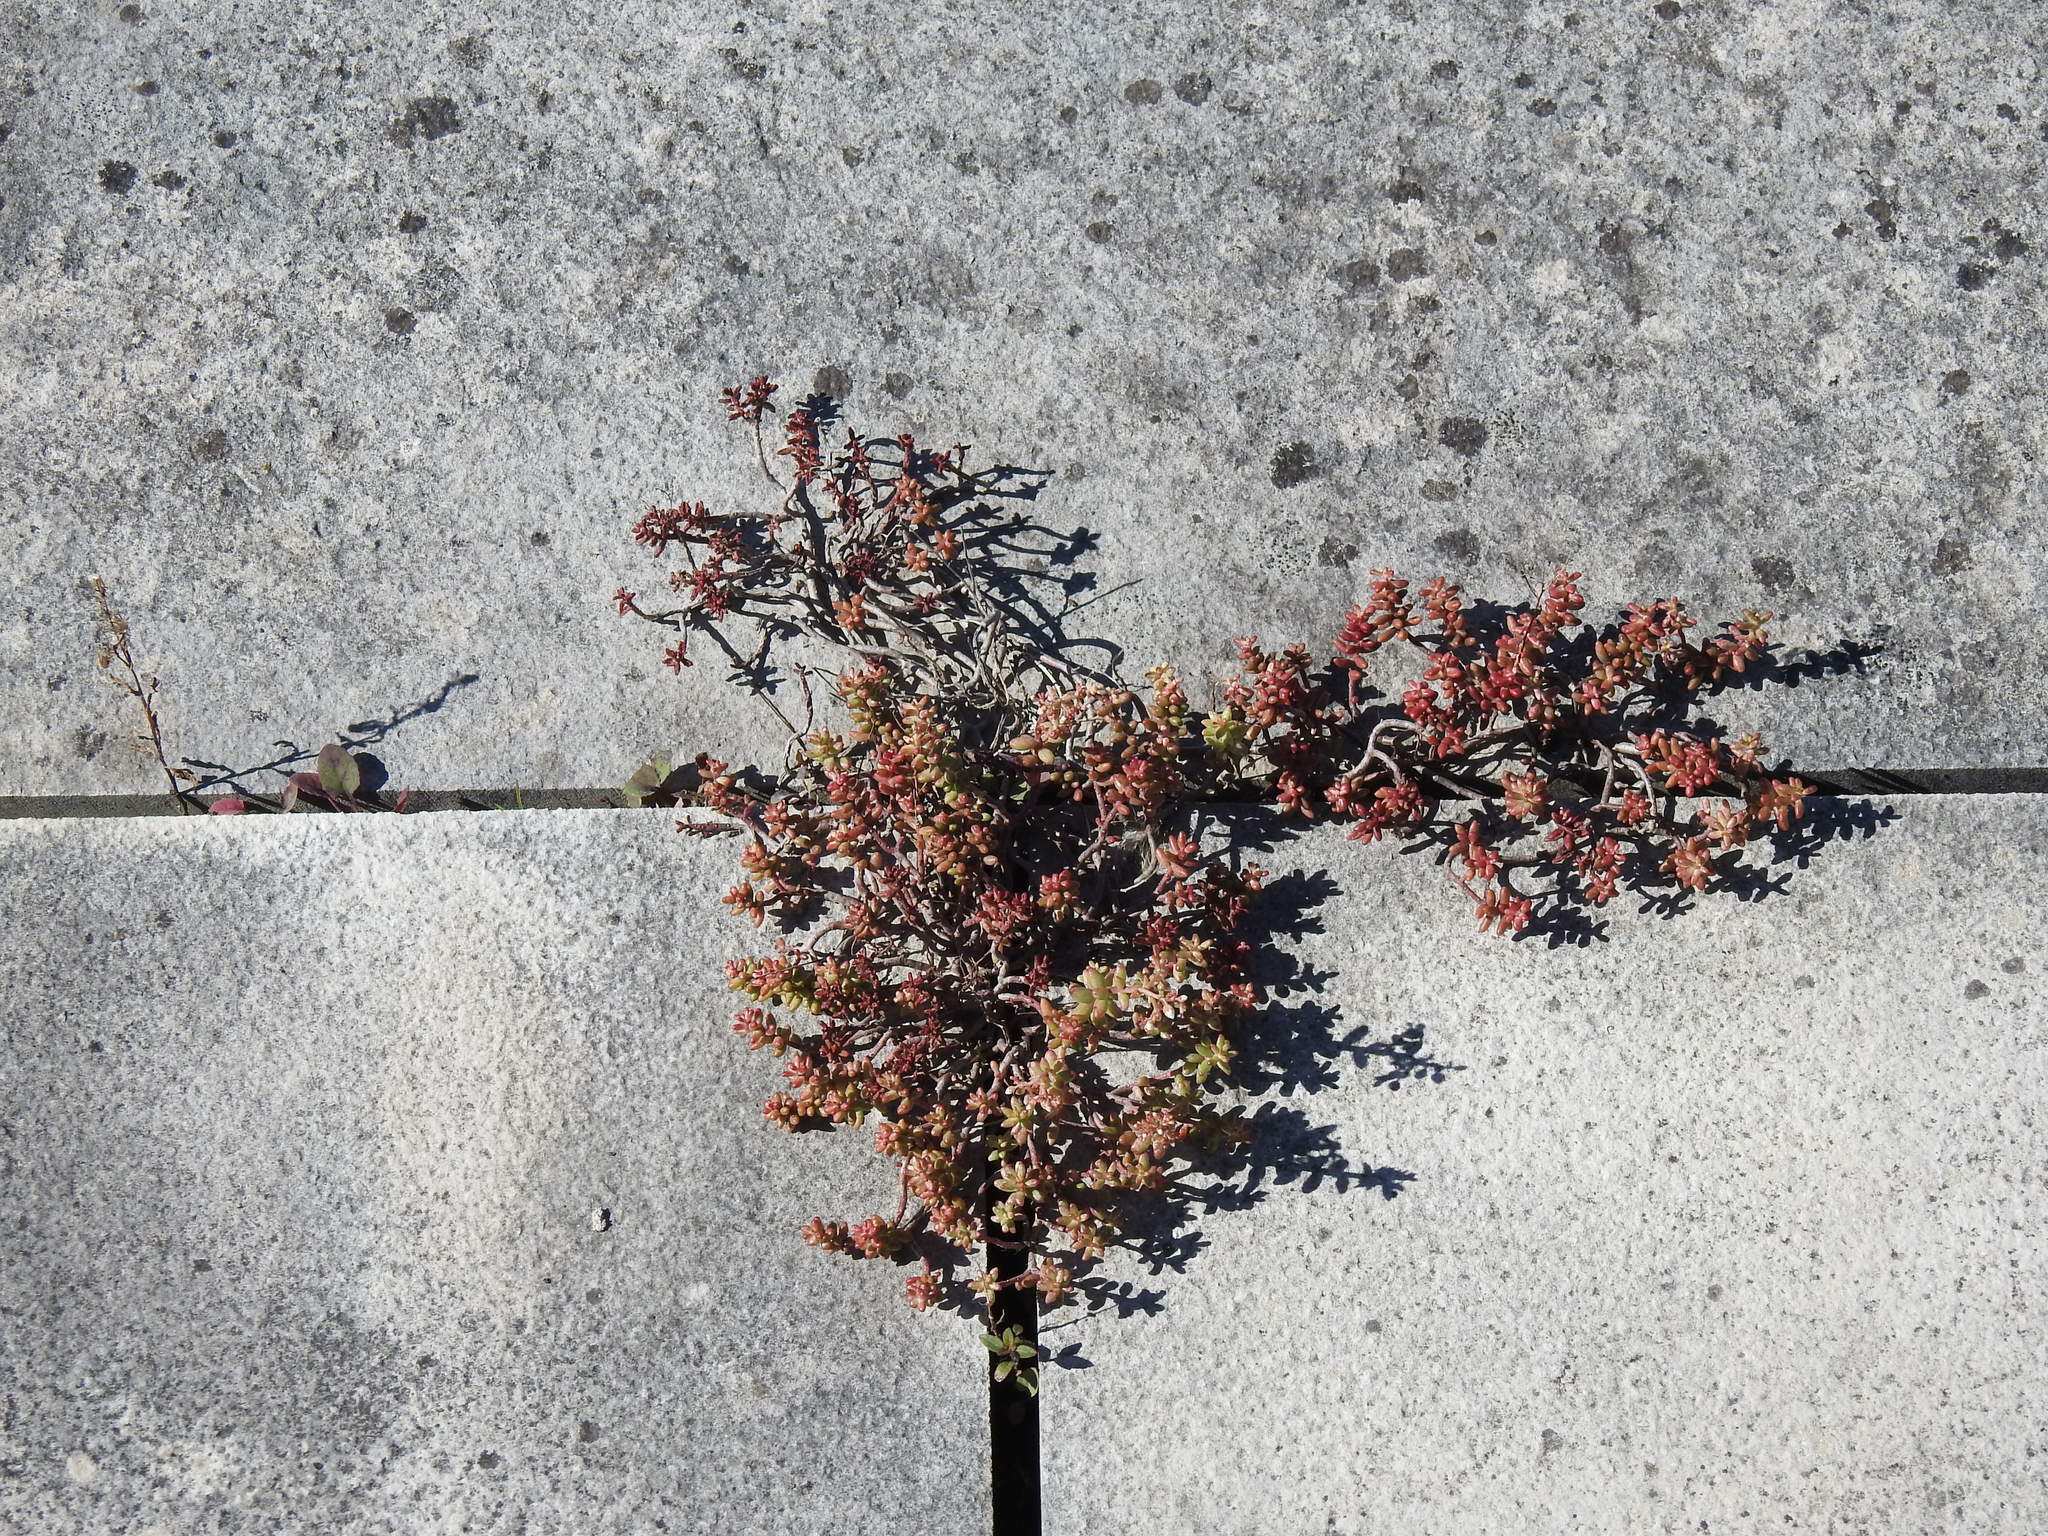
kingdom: Plantae
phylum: Tracheophyta
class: Magnoliopsida
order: Saxifragales
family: Crassulaceae
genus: Sedum
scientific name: Sedum album
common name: White stonecrop
